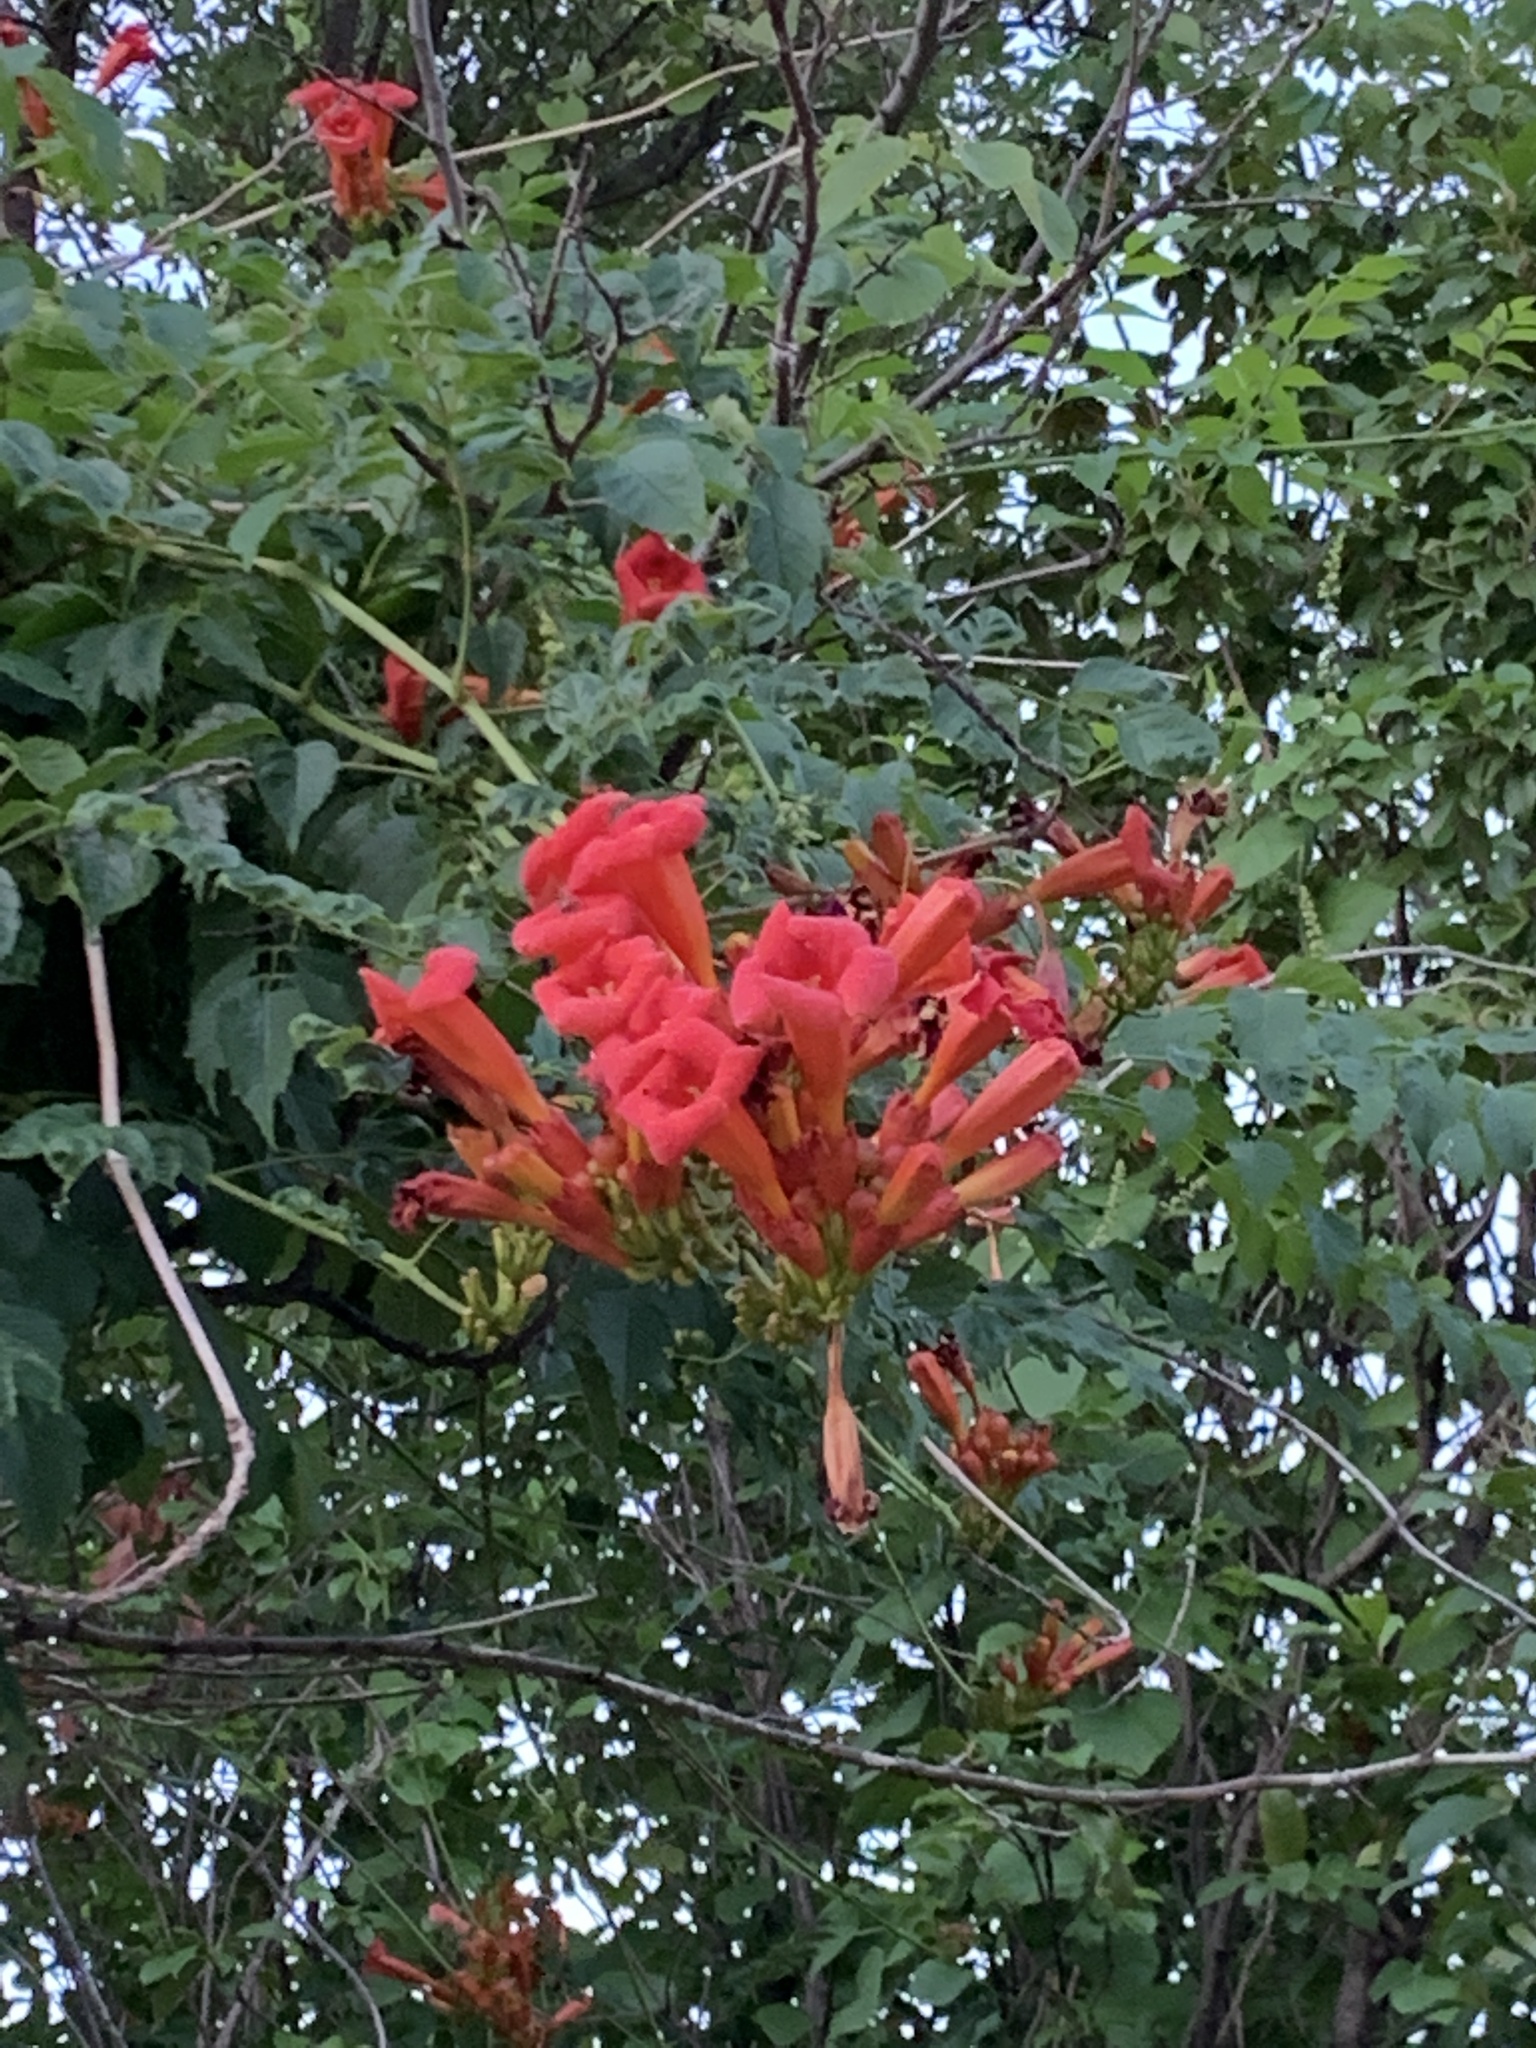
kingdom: Plantae
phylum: Tracheophyta
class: Magnoliopsida
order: Lamiales
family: Bignoniaceae
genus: Campsis
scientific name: Campsis radicans
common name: Trumpet-creeper
